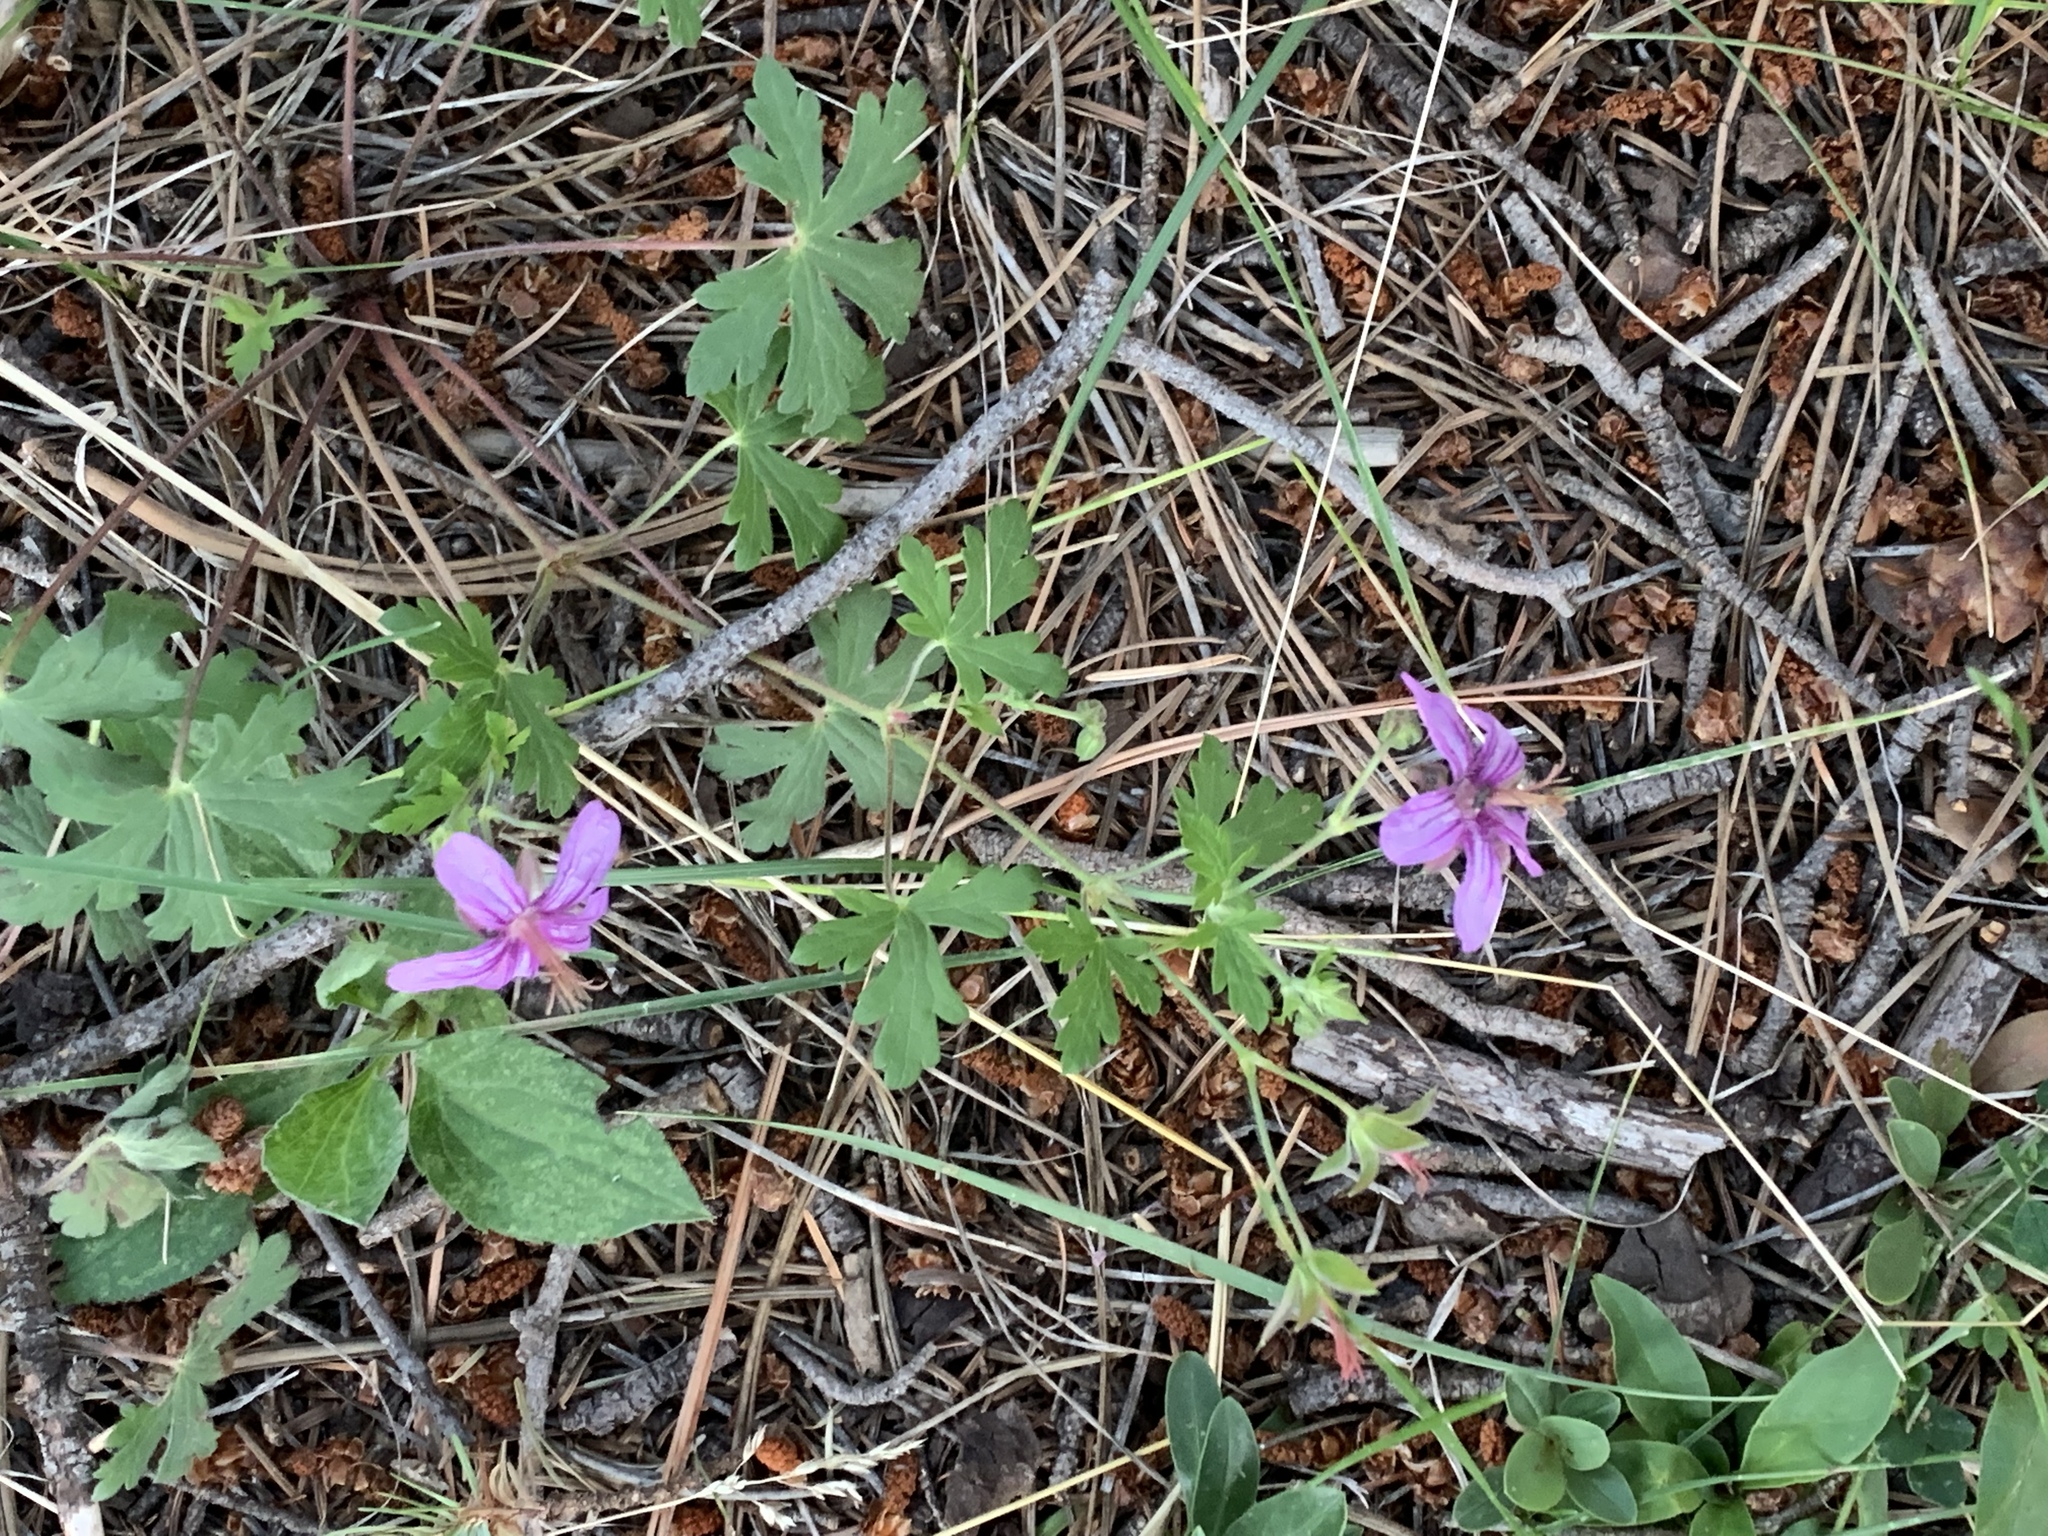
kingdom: Plantae
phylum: Tracheophyta
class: Magnoliopsida
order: Geraniales
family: Geraniaceae
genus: Geranium
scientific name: Geranium caespitosum
